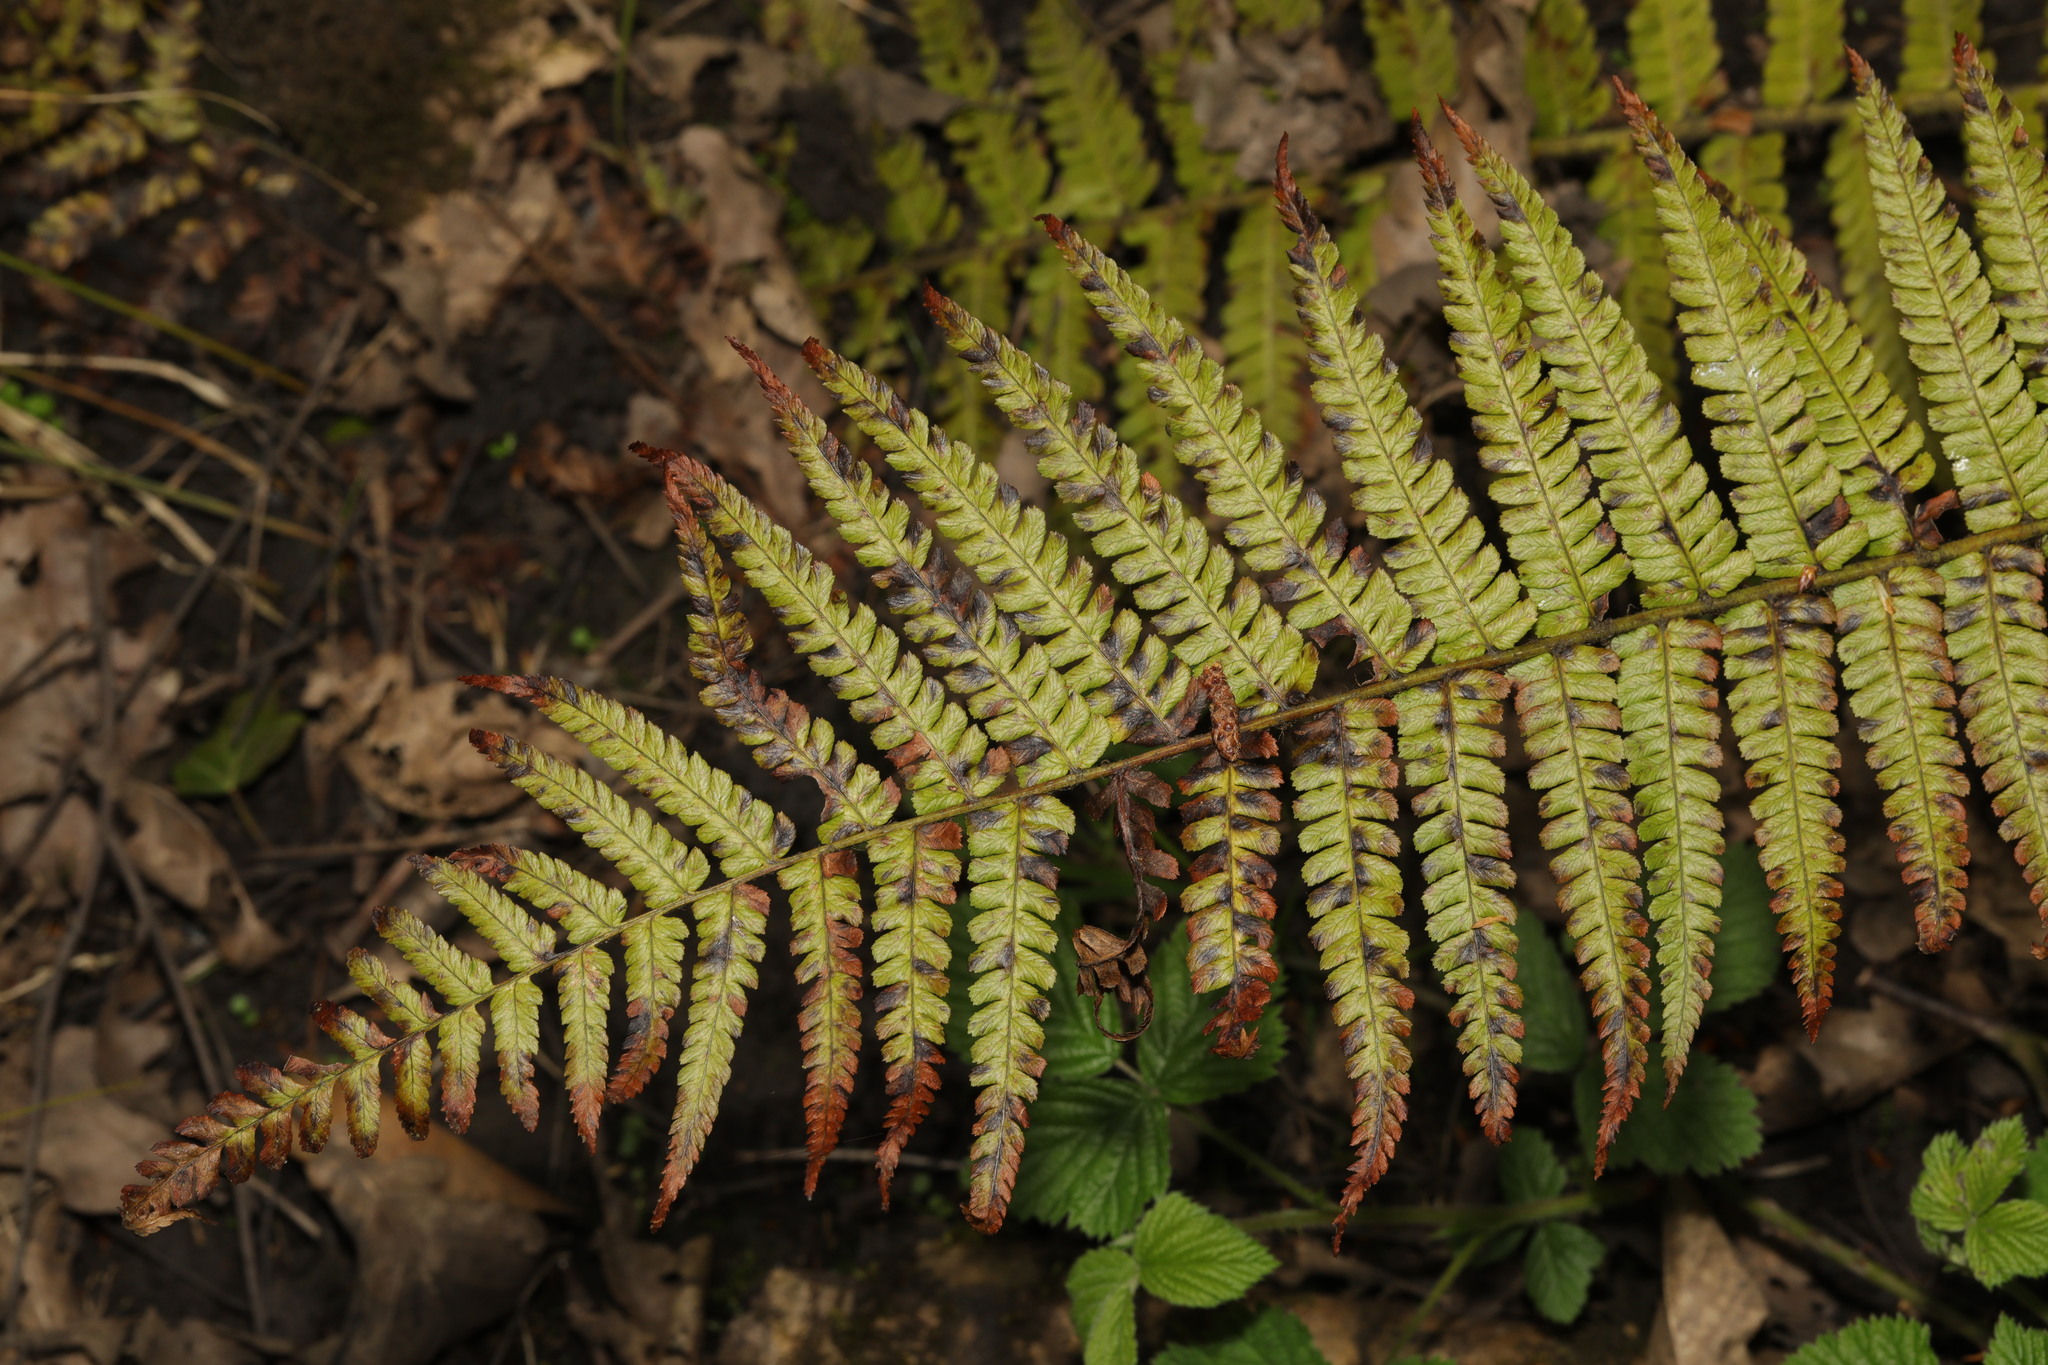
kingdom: Plantae
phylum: Tracheophyta
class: Polypodiopsida
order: Polypodiales
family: Dryopteridaceae
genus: Dryopteris
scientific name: Dryopteris filix-mas
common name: Male fern
